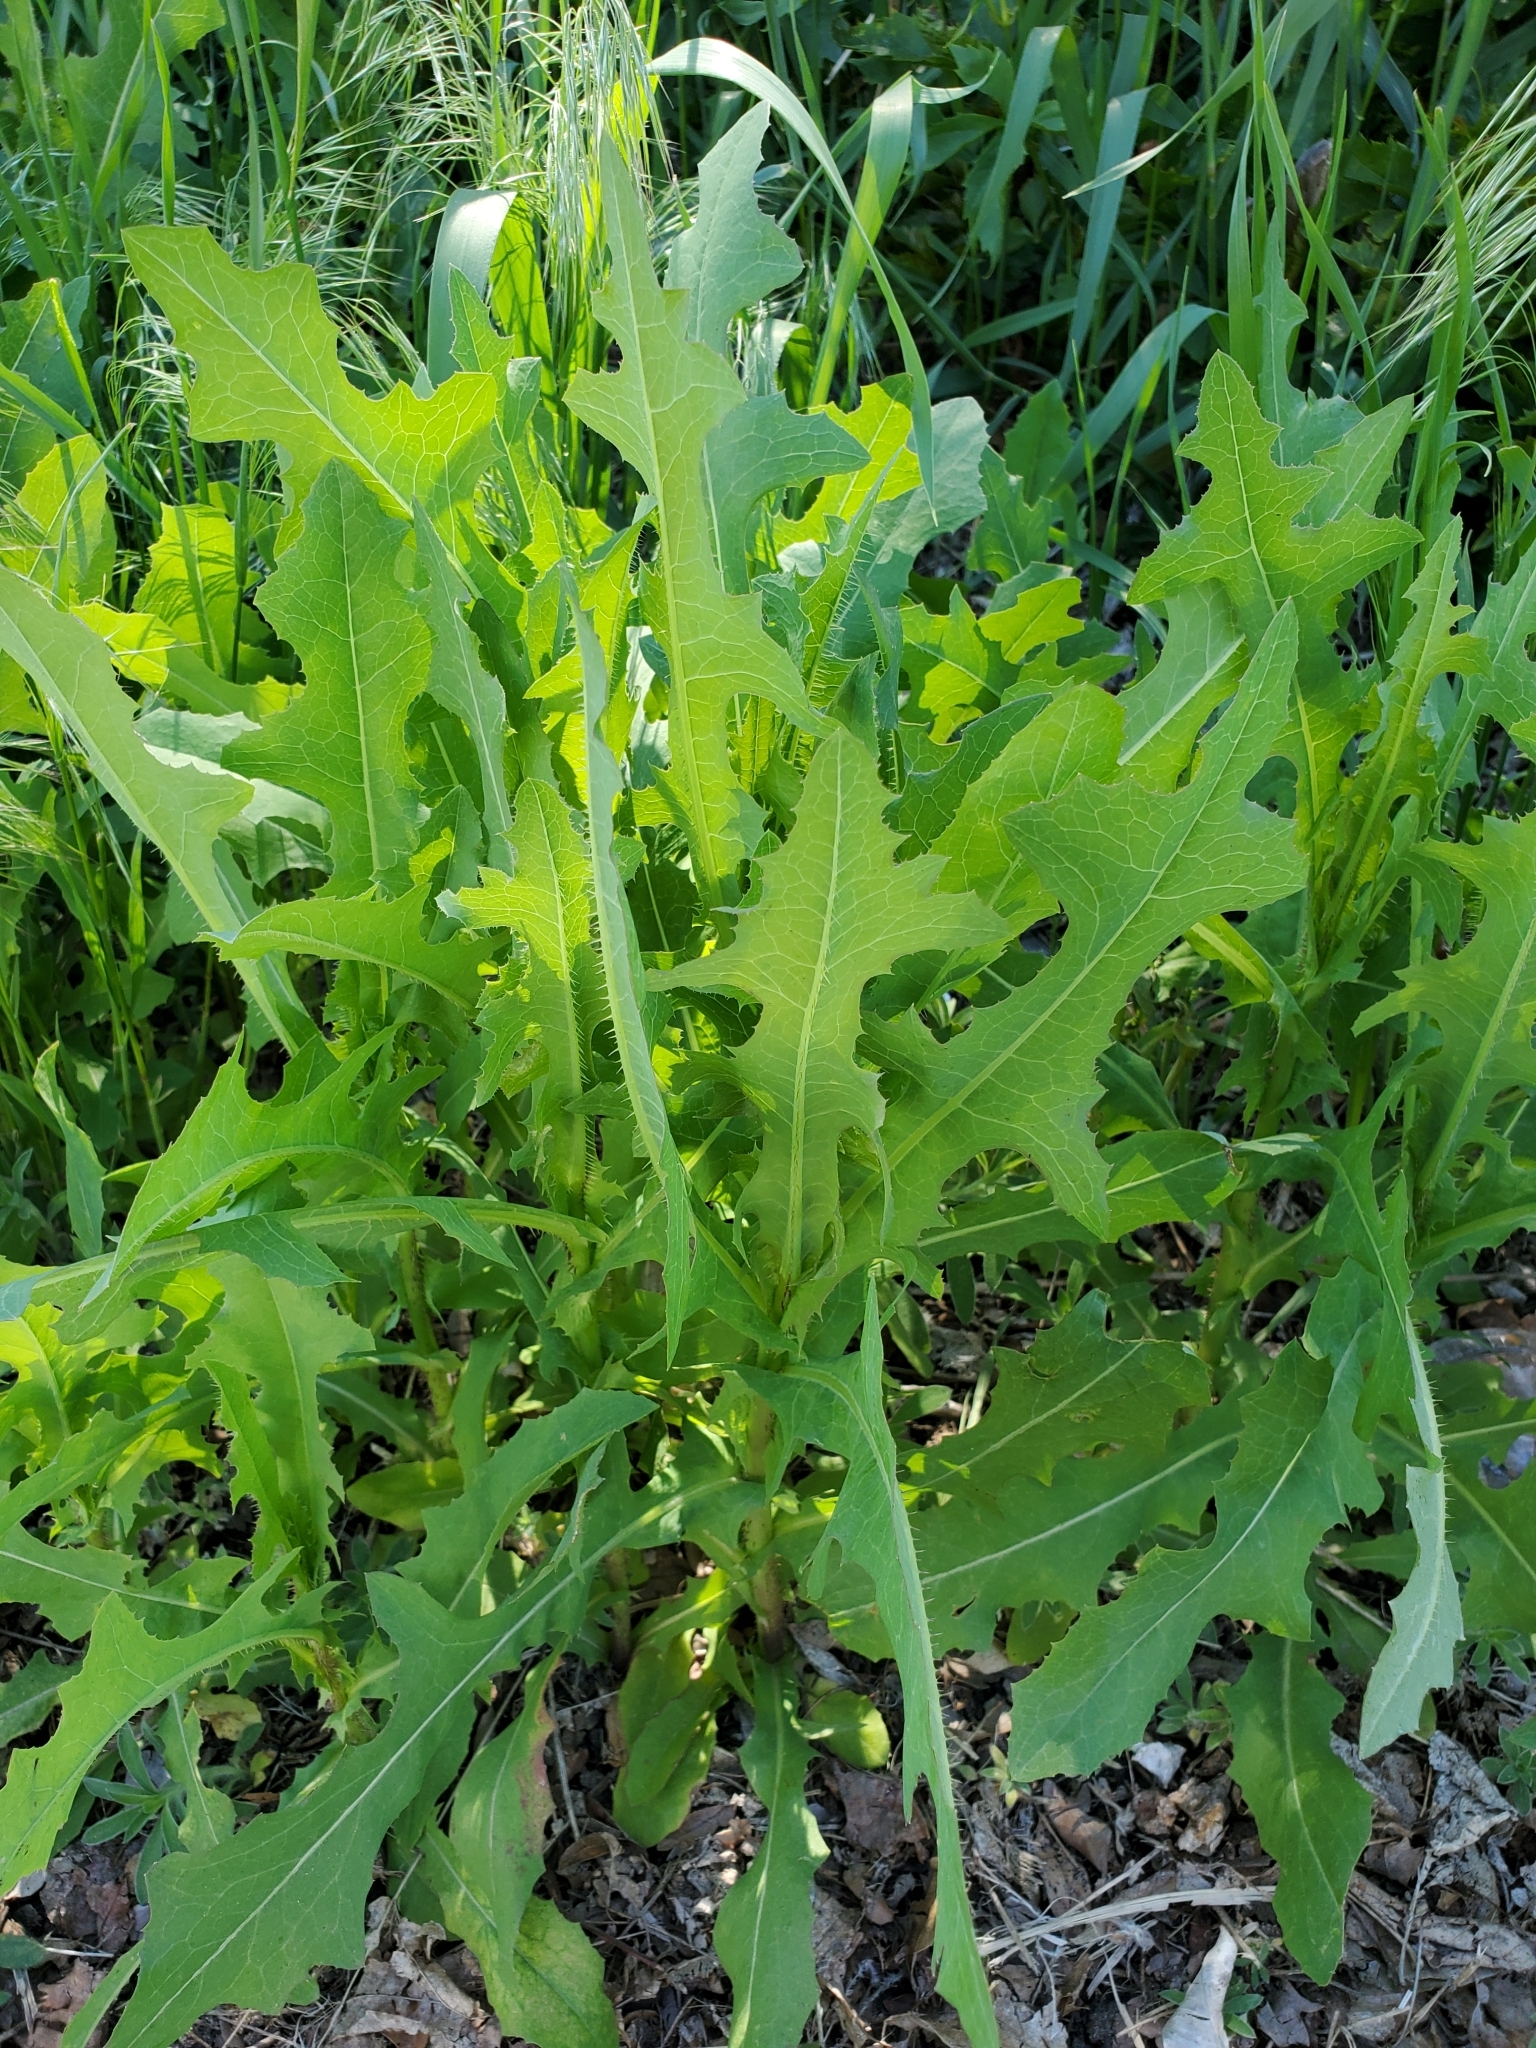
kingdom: Plantae
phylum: Tracheophyta
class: Magnoliopsida
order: Asterales
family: Asteraceae
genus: Lactuca
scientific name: Lactuca serriola
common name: Prickly lettuce
